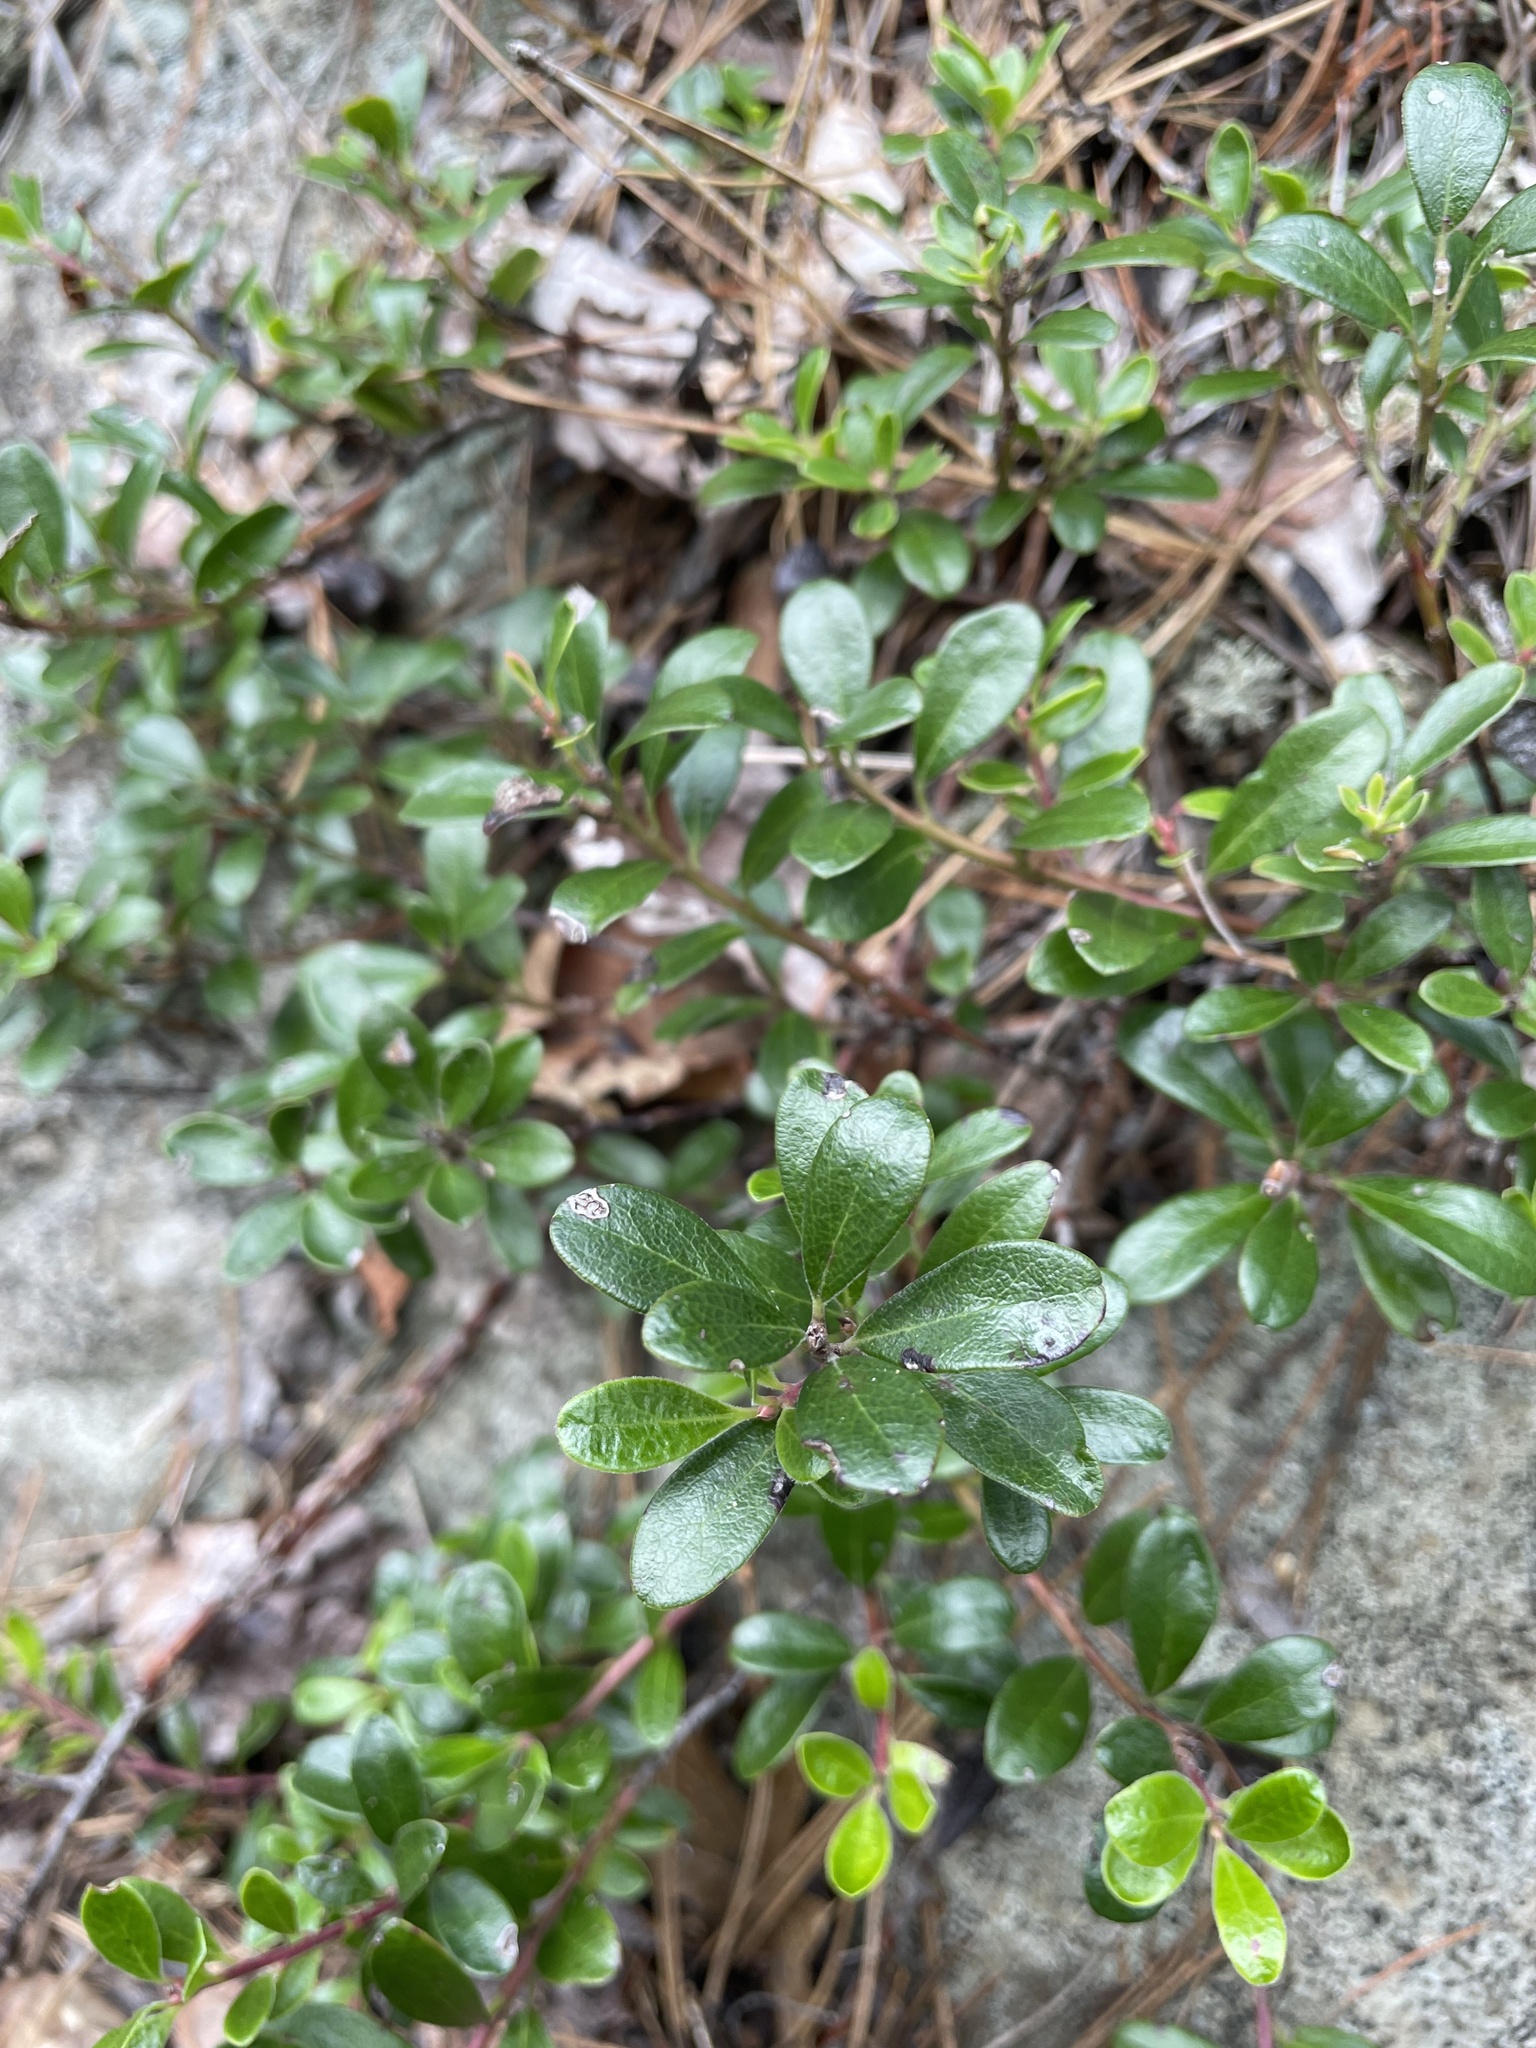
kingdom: Plantae
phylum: Tracheophyta
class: Magnoliopsida
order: Ericales
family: Ericaceae
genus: Arctostaphylos
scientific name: Arctostaphylos uva-ursi
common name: Bearberry
